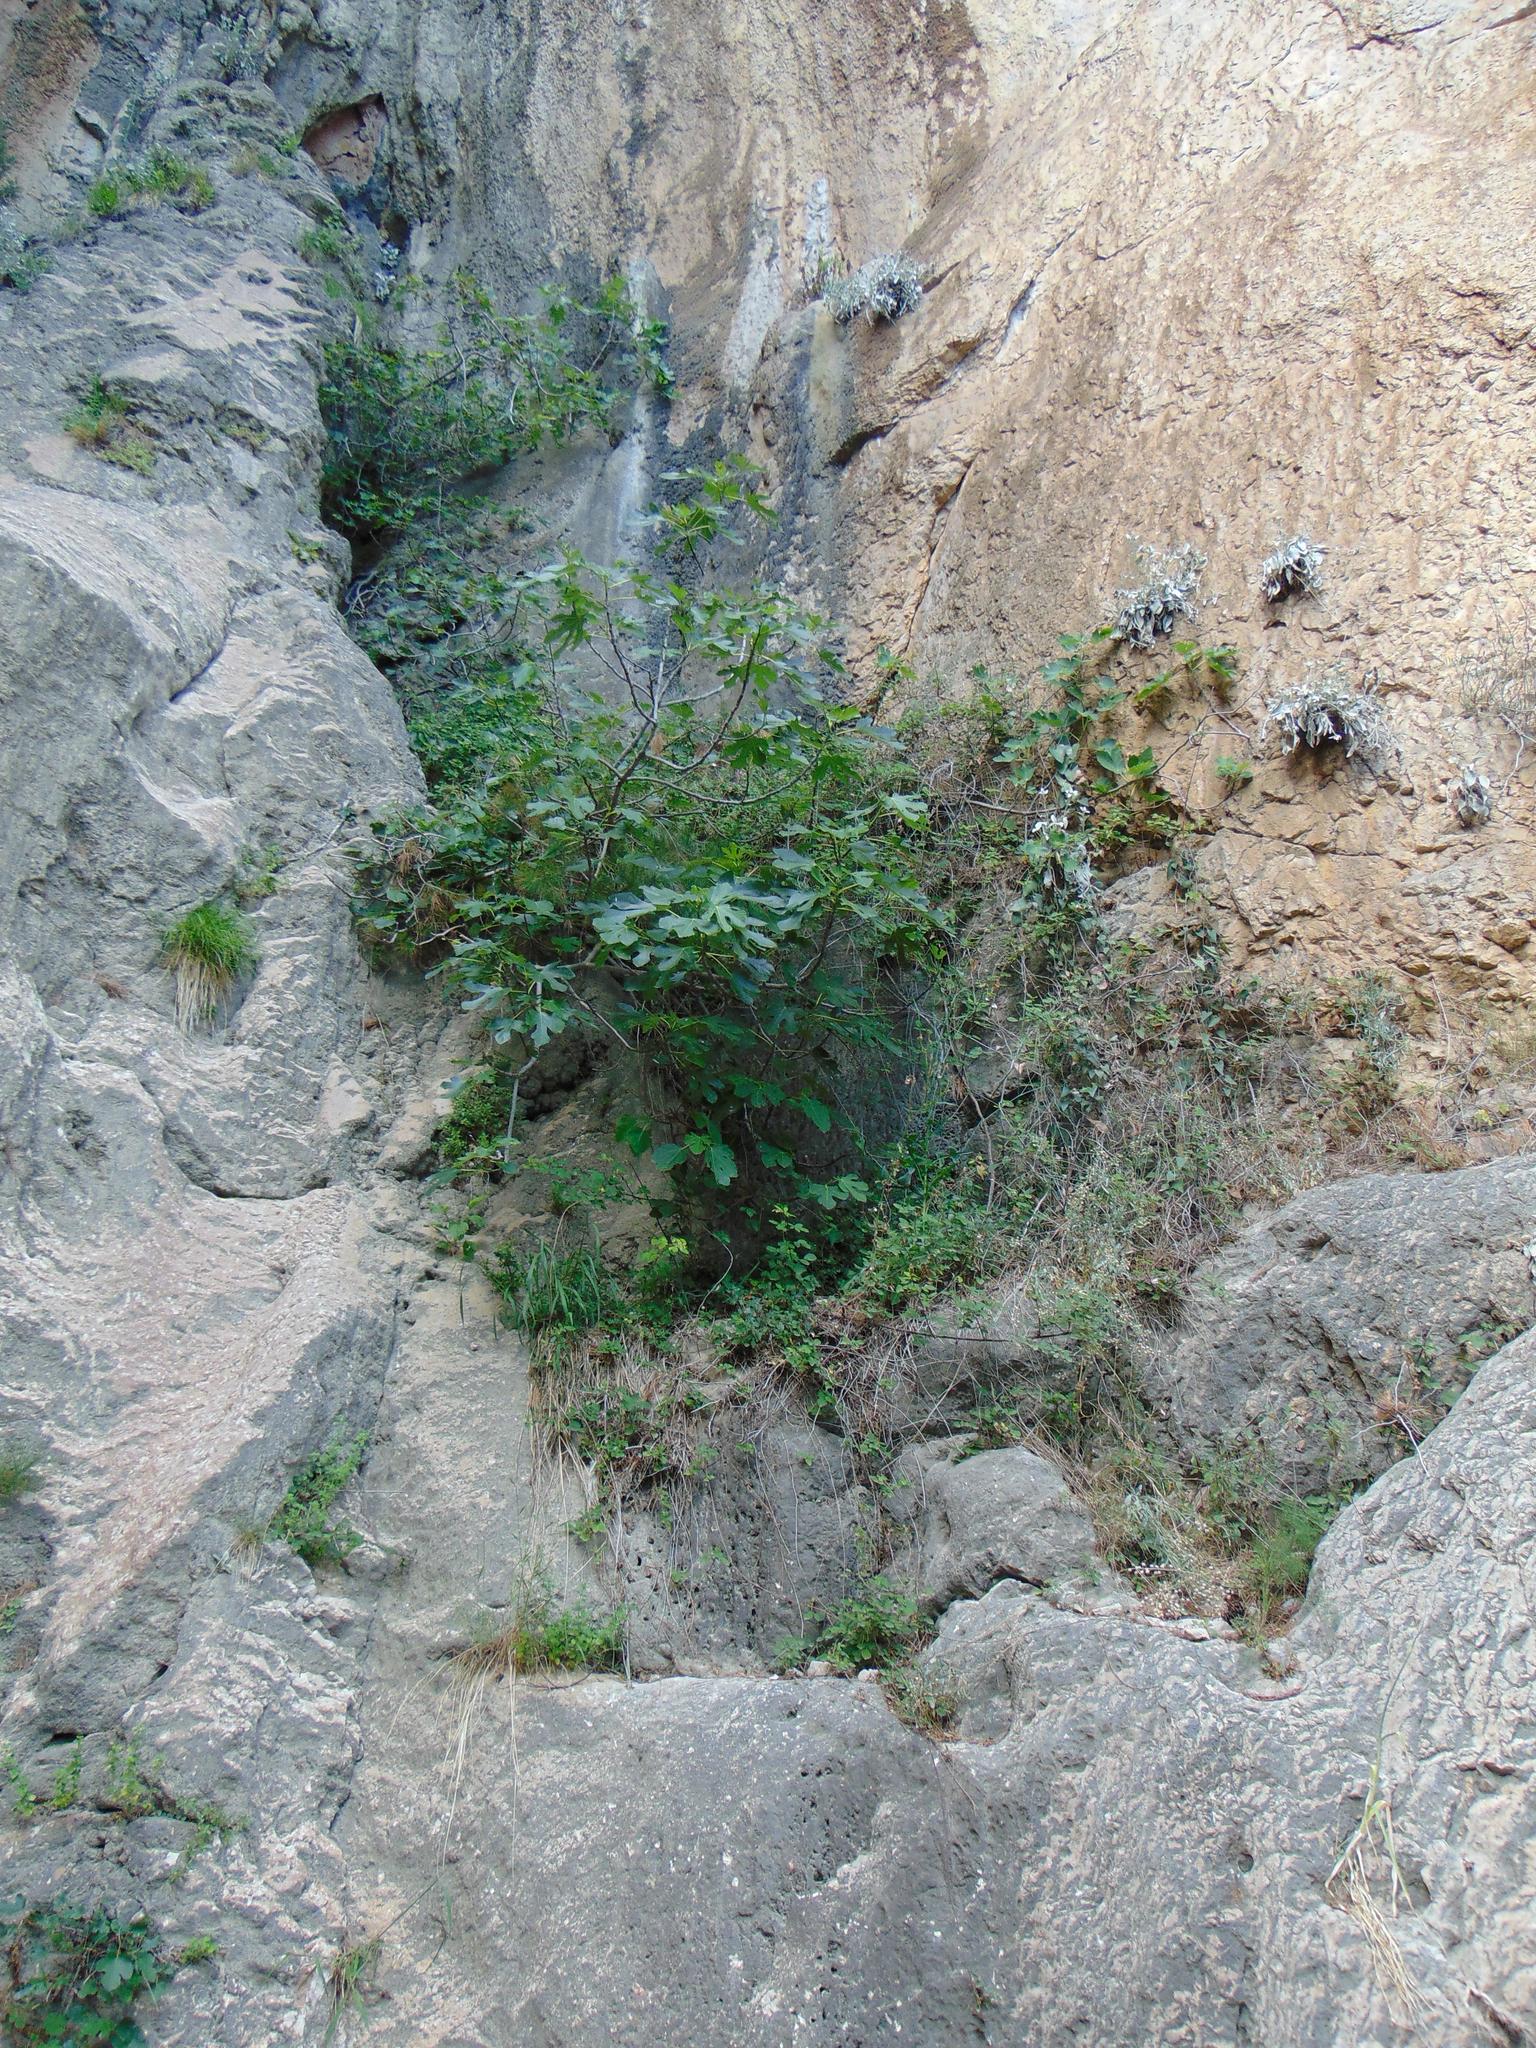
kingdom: Plantae
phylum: Tracheophyta
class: Magnoliopsida
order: Rosales
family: Moraceae
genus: Ficus
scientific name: Ficus carica
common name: Fig
